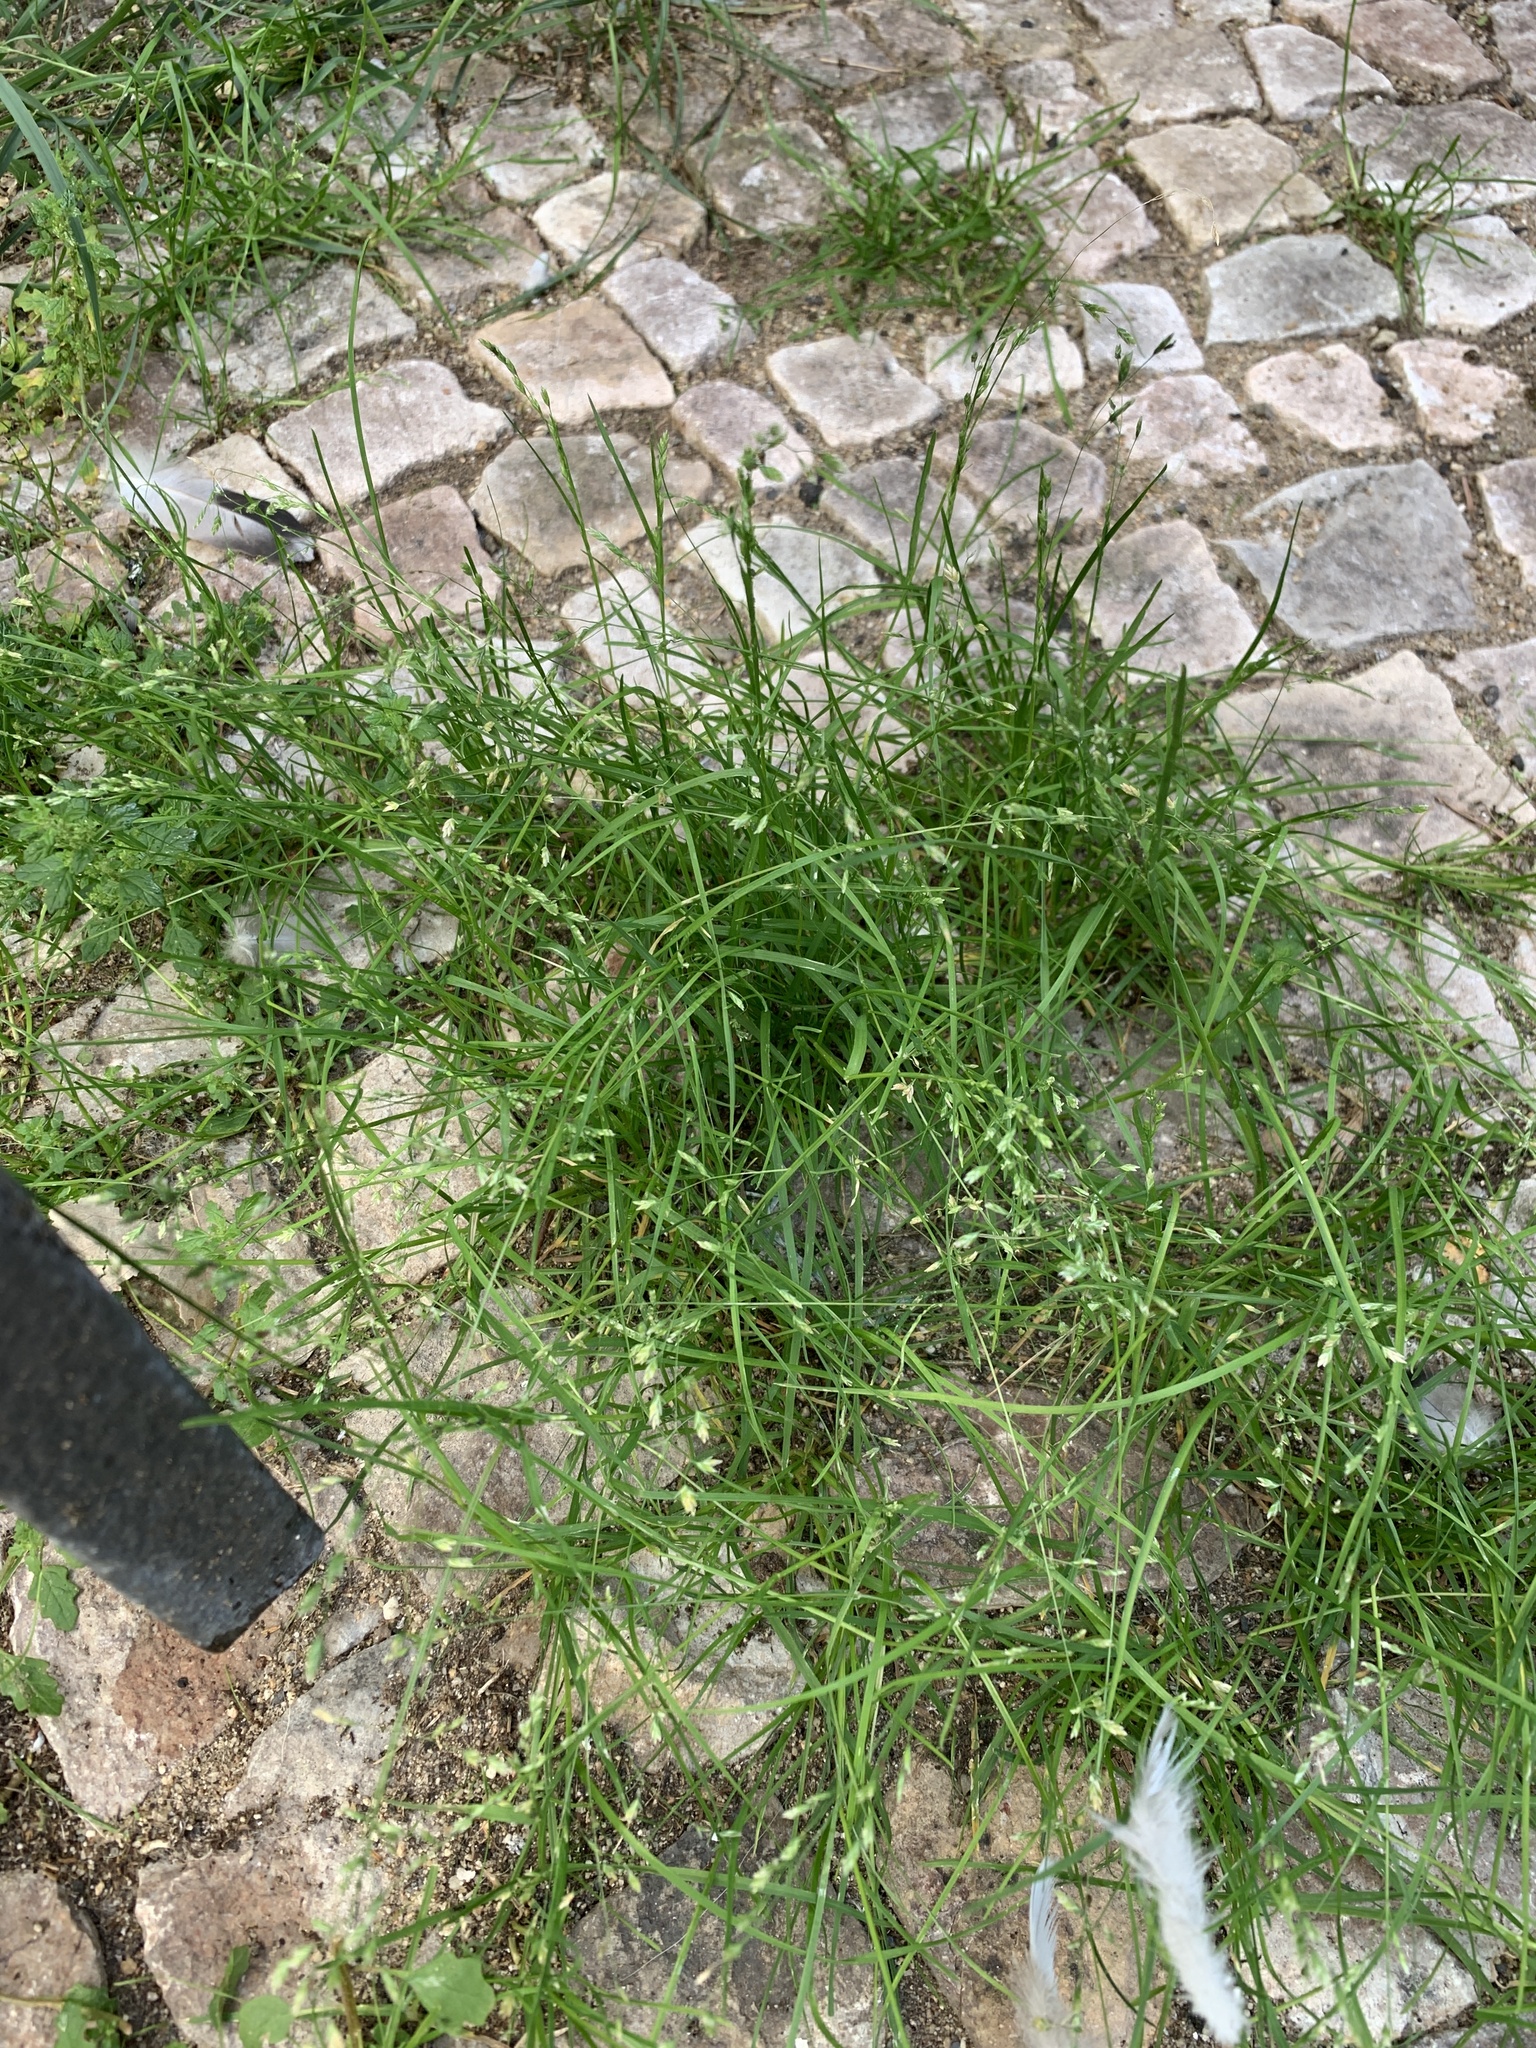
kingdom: Plantae
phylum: Tracheophyta
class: Liliopsida
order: Poales
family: Poaceae
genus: Poa
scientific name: Poa annua
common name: Annual bluegrass
